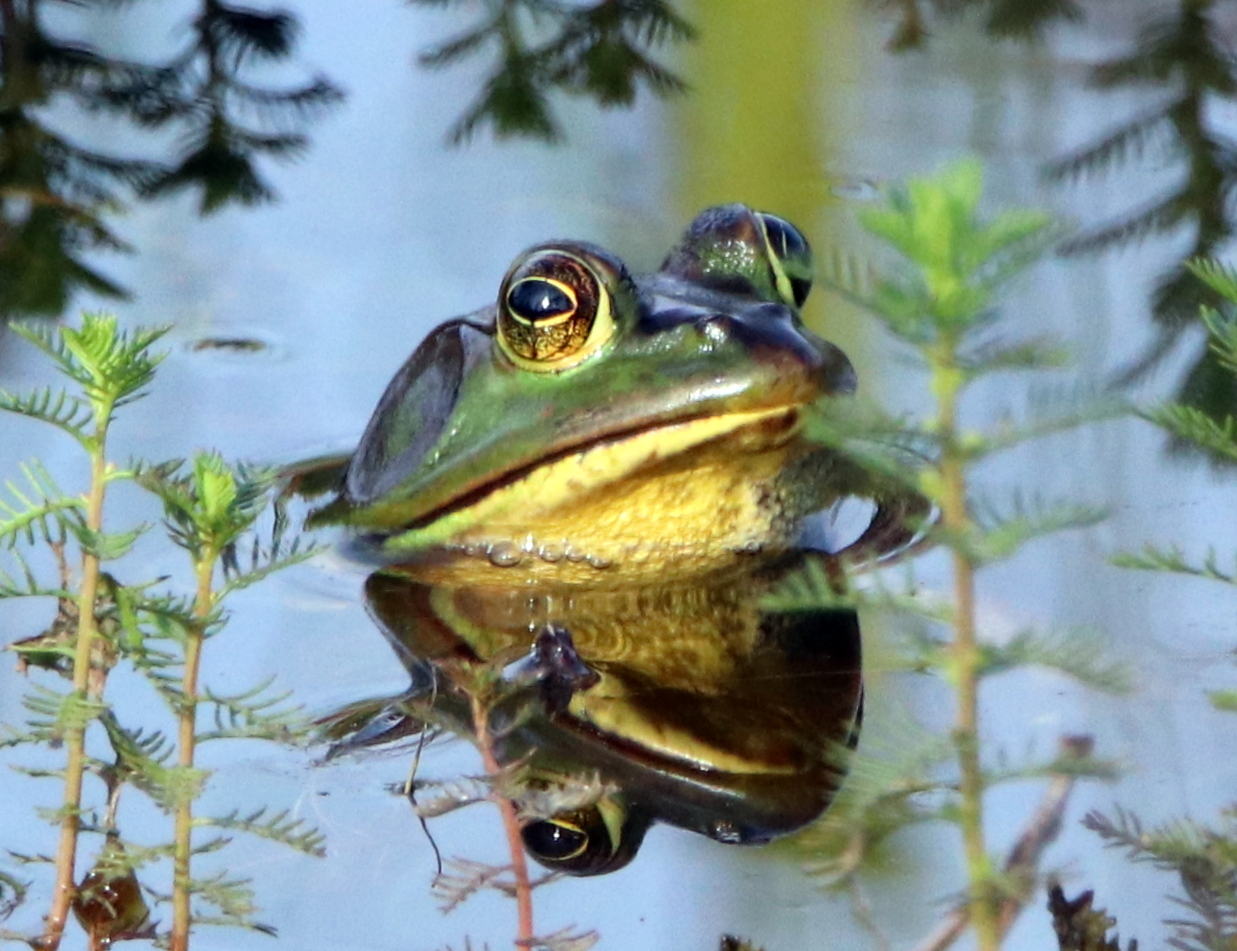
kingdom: Animalia
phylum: Chordata
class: Amphibia
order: Anura
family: Ranidae
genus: Lithobates
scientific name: Lithobates grylio
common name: Pig frog
